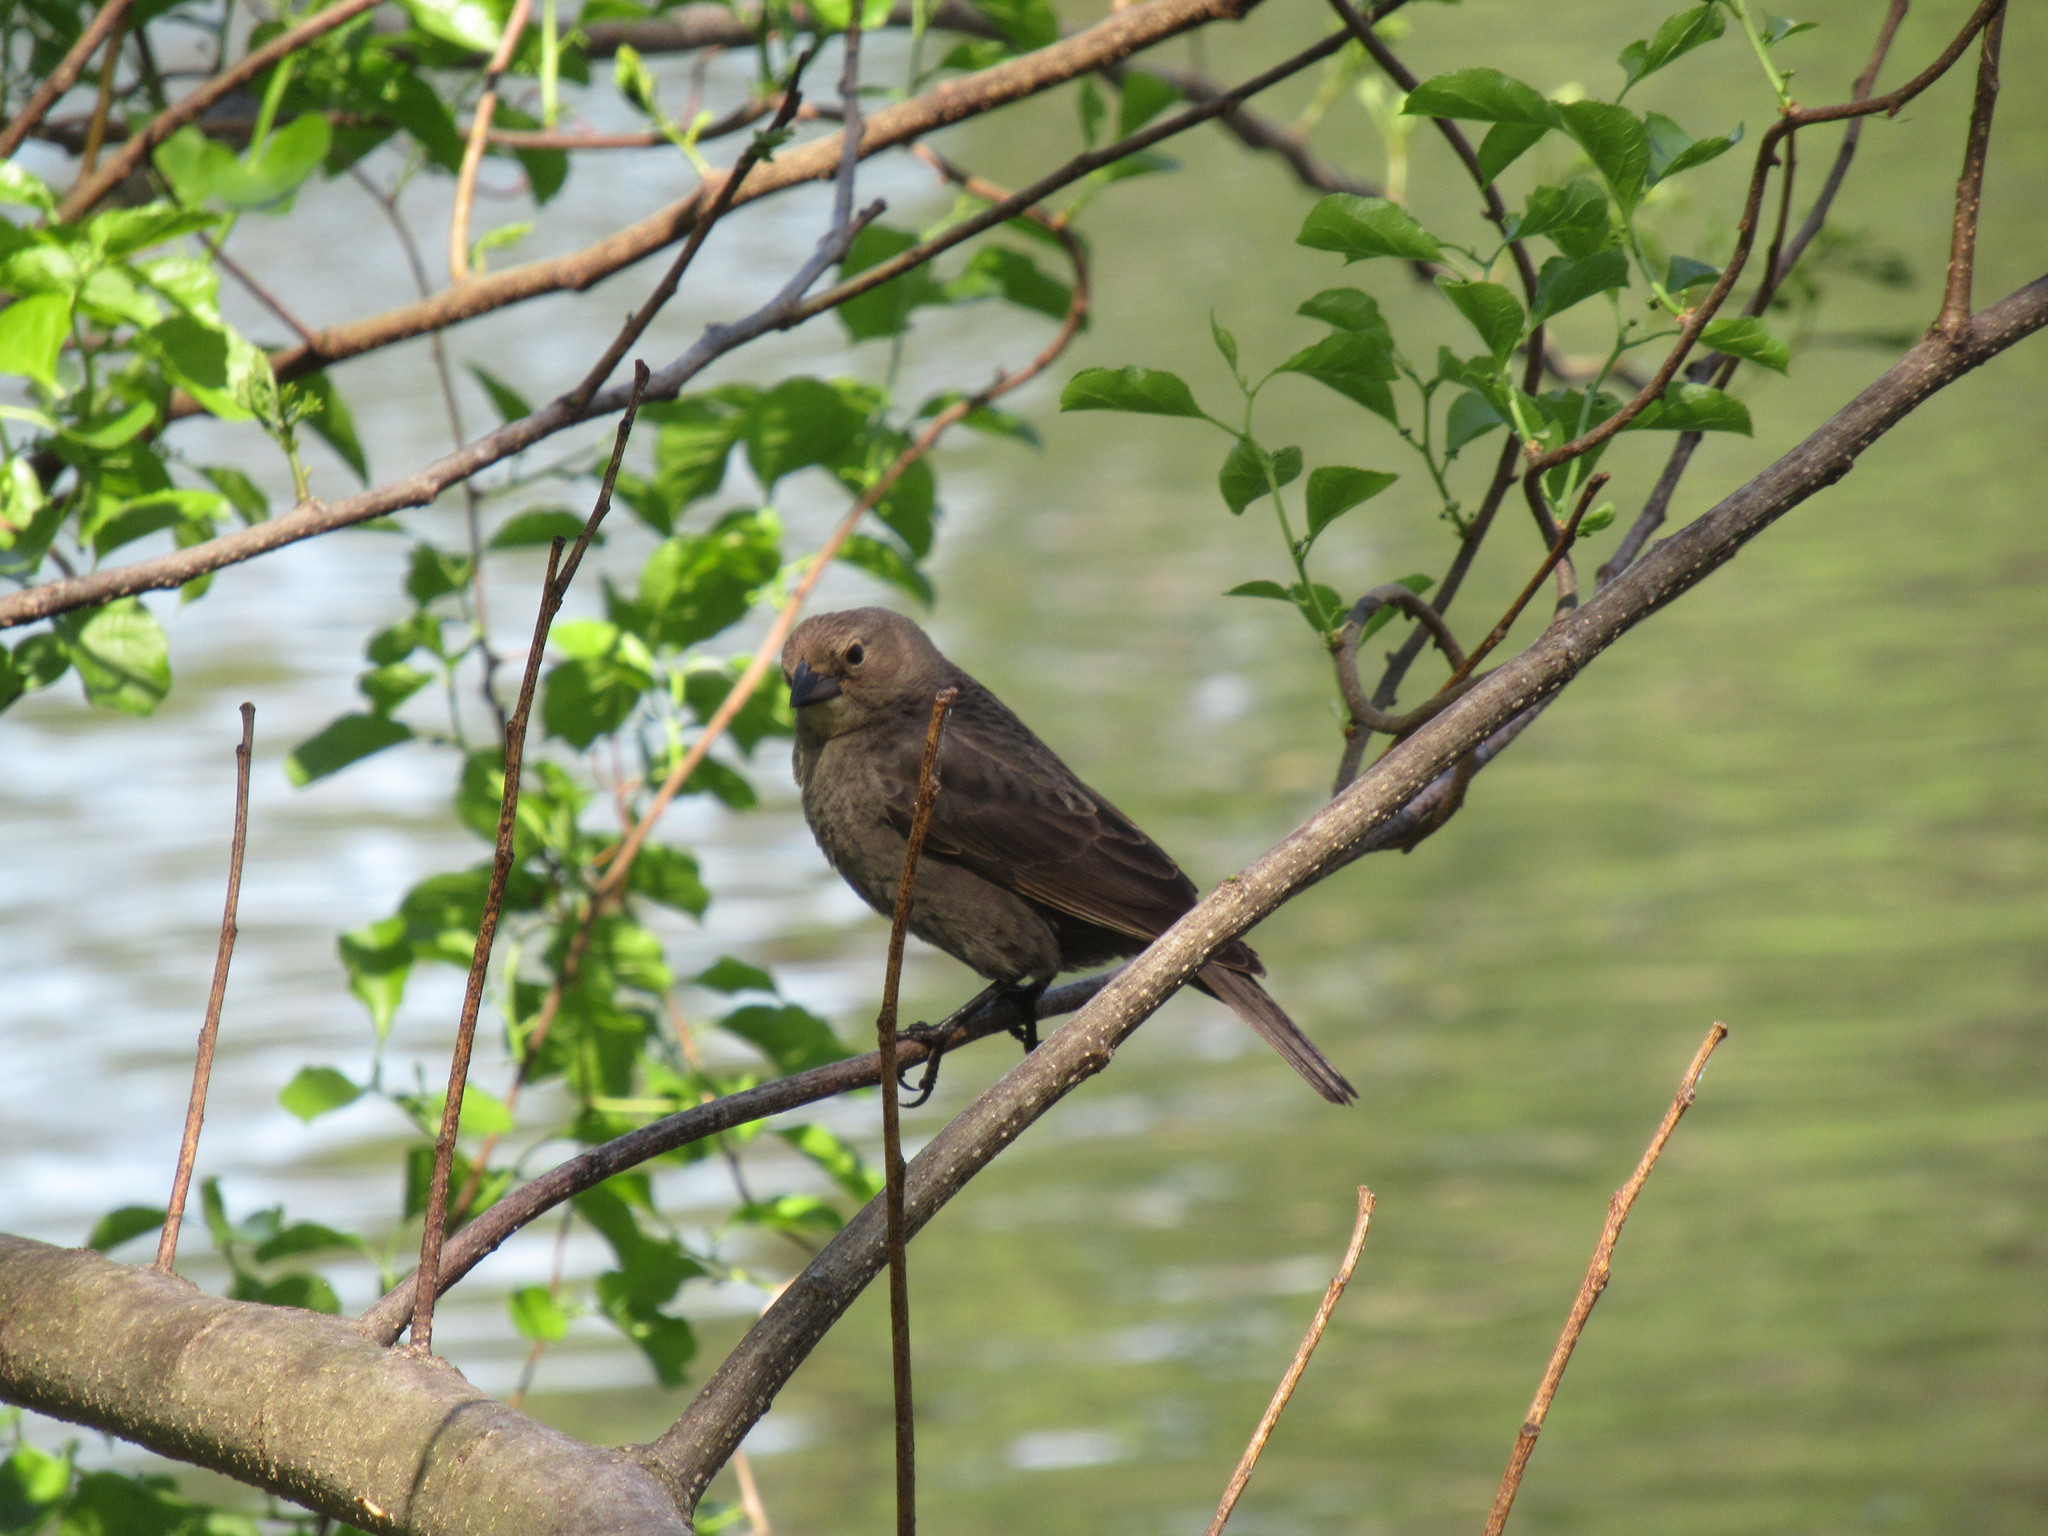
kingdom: Animalia
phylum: Chordata
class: Aves
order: Passeriformes
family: Icteridae
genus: Molothrus
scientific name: Molothrus ater
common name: Brown-headed cowbird
